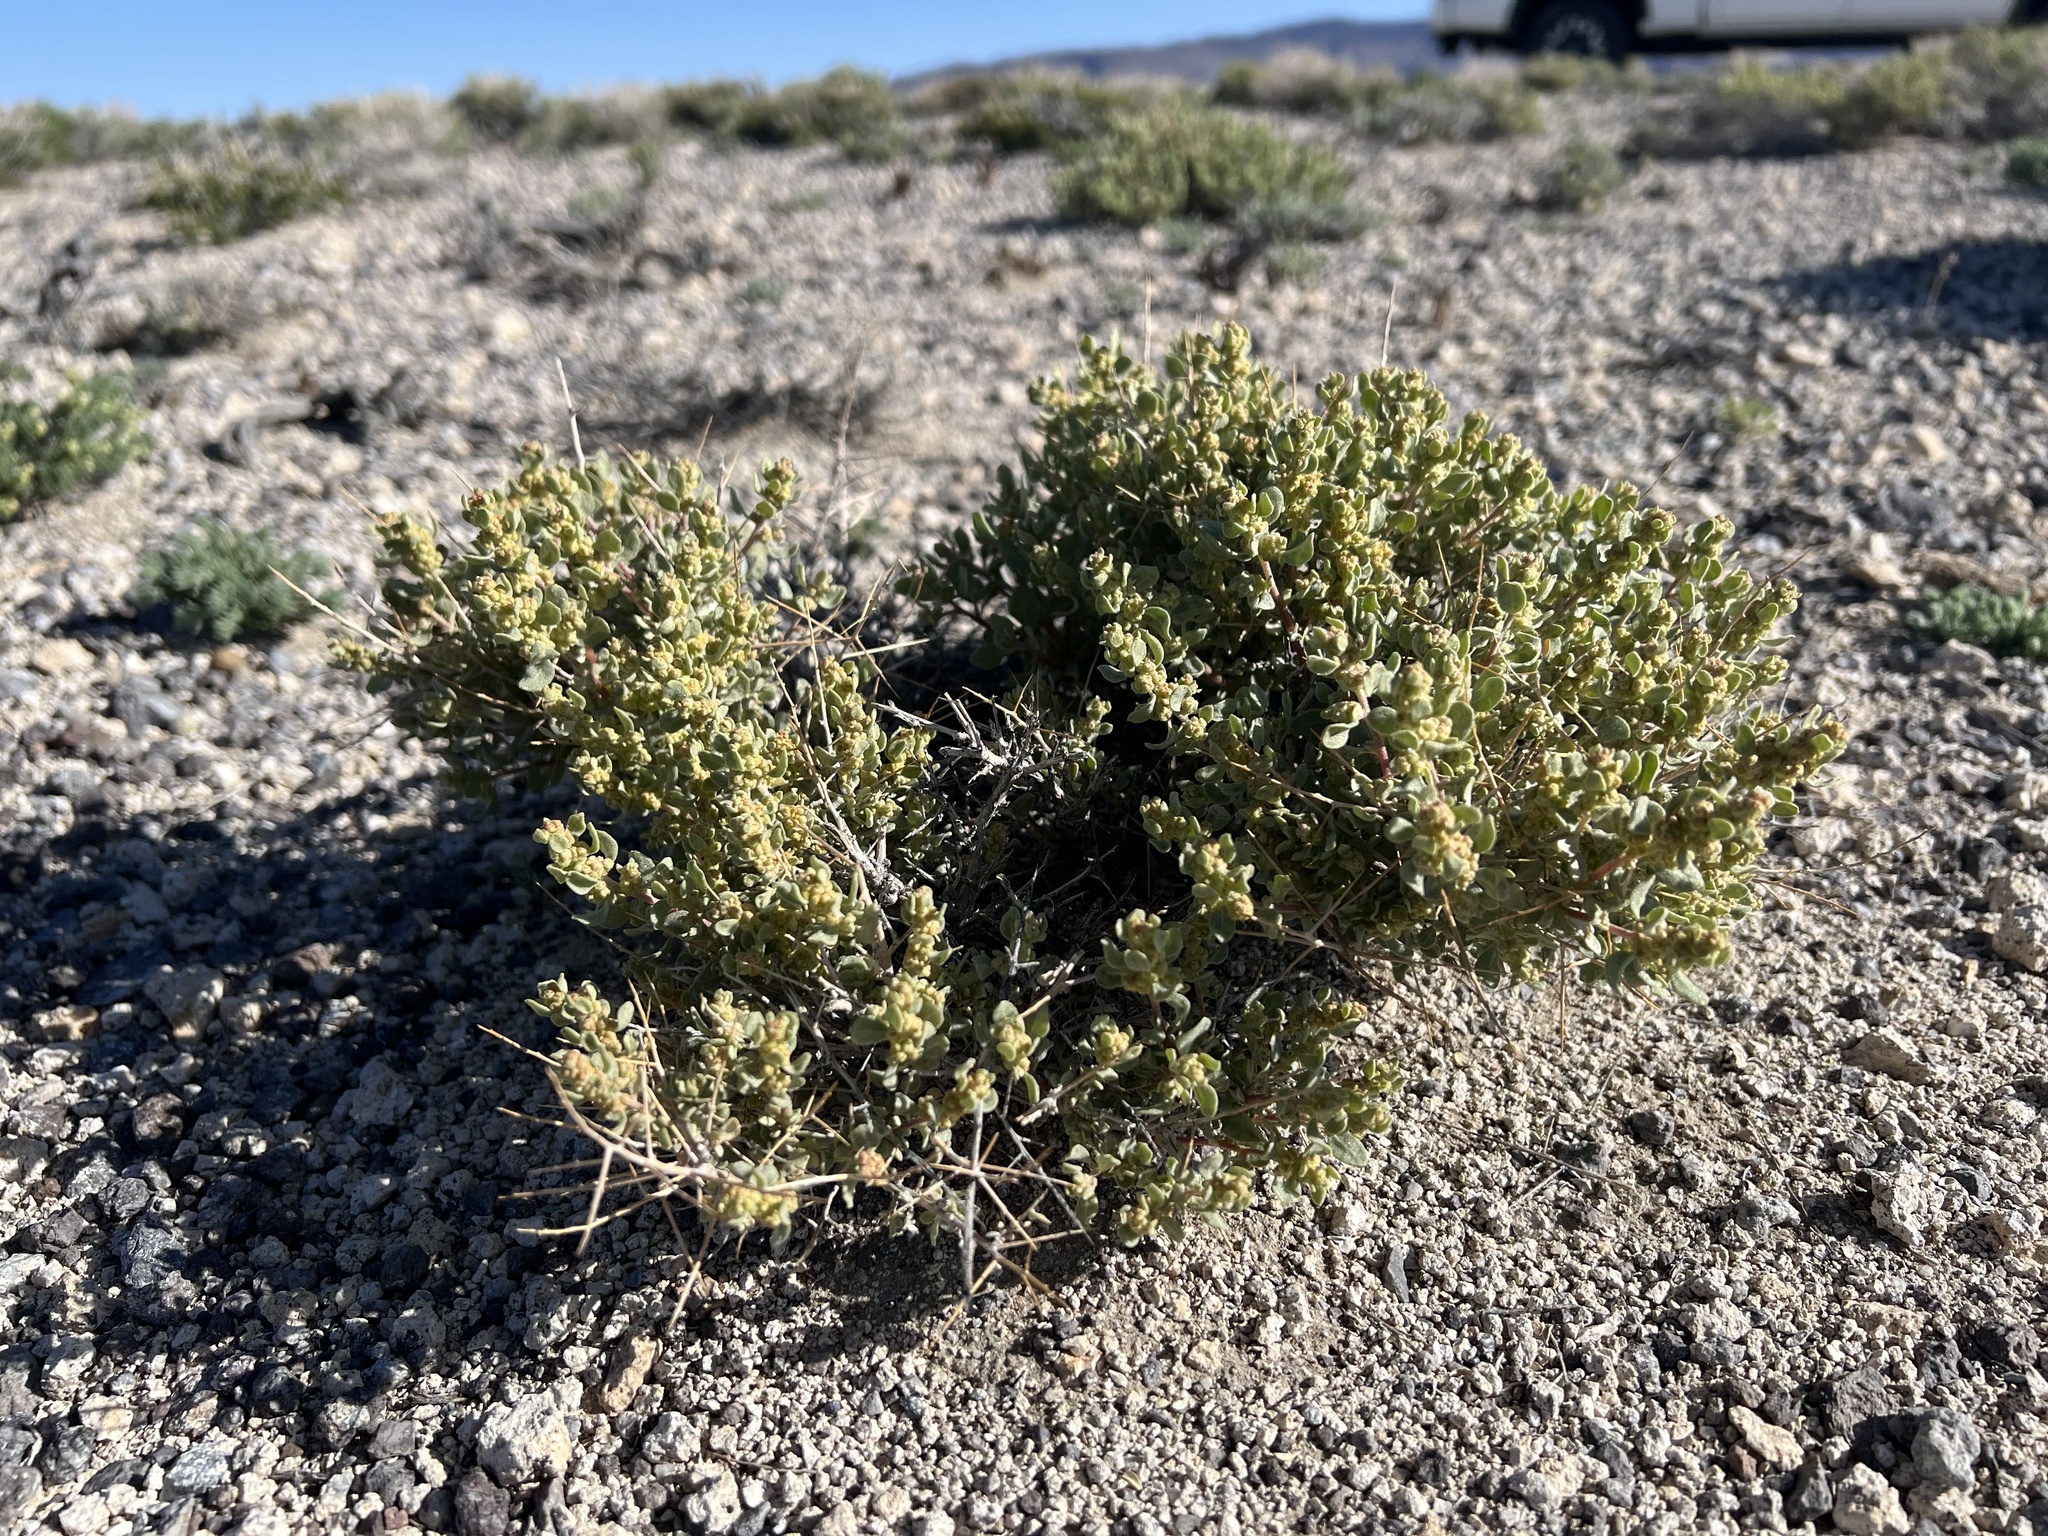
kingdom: Plantae
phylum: Tracheophyta
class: Magnoliopsida
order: Caryophyllales
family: Amaranthaceae
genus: Atriplex
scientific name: Atriplex confertifolia
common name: Shadscale
